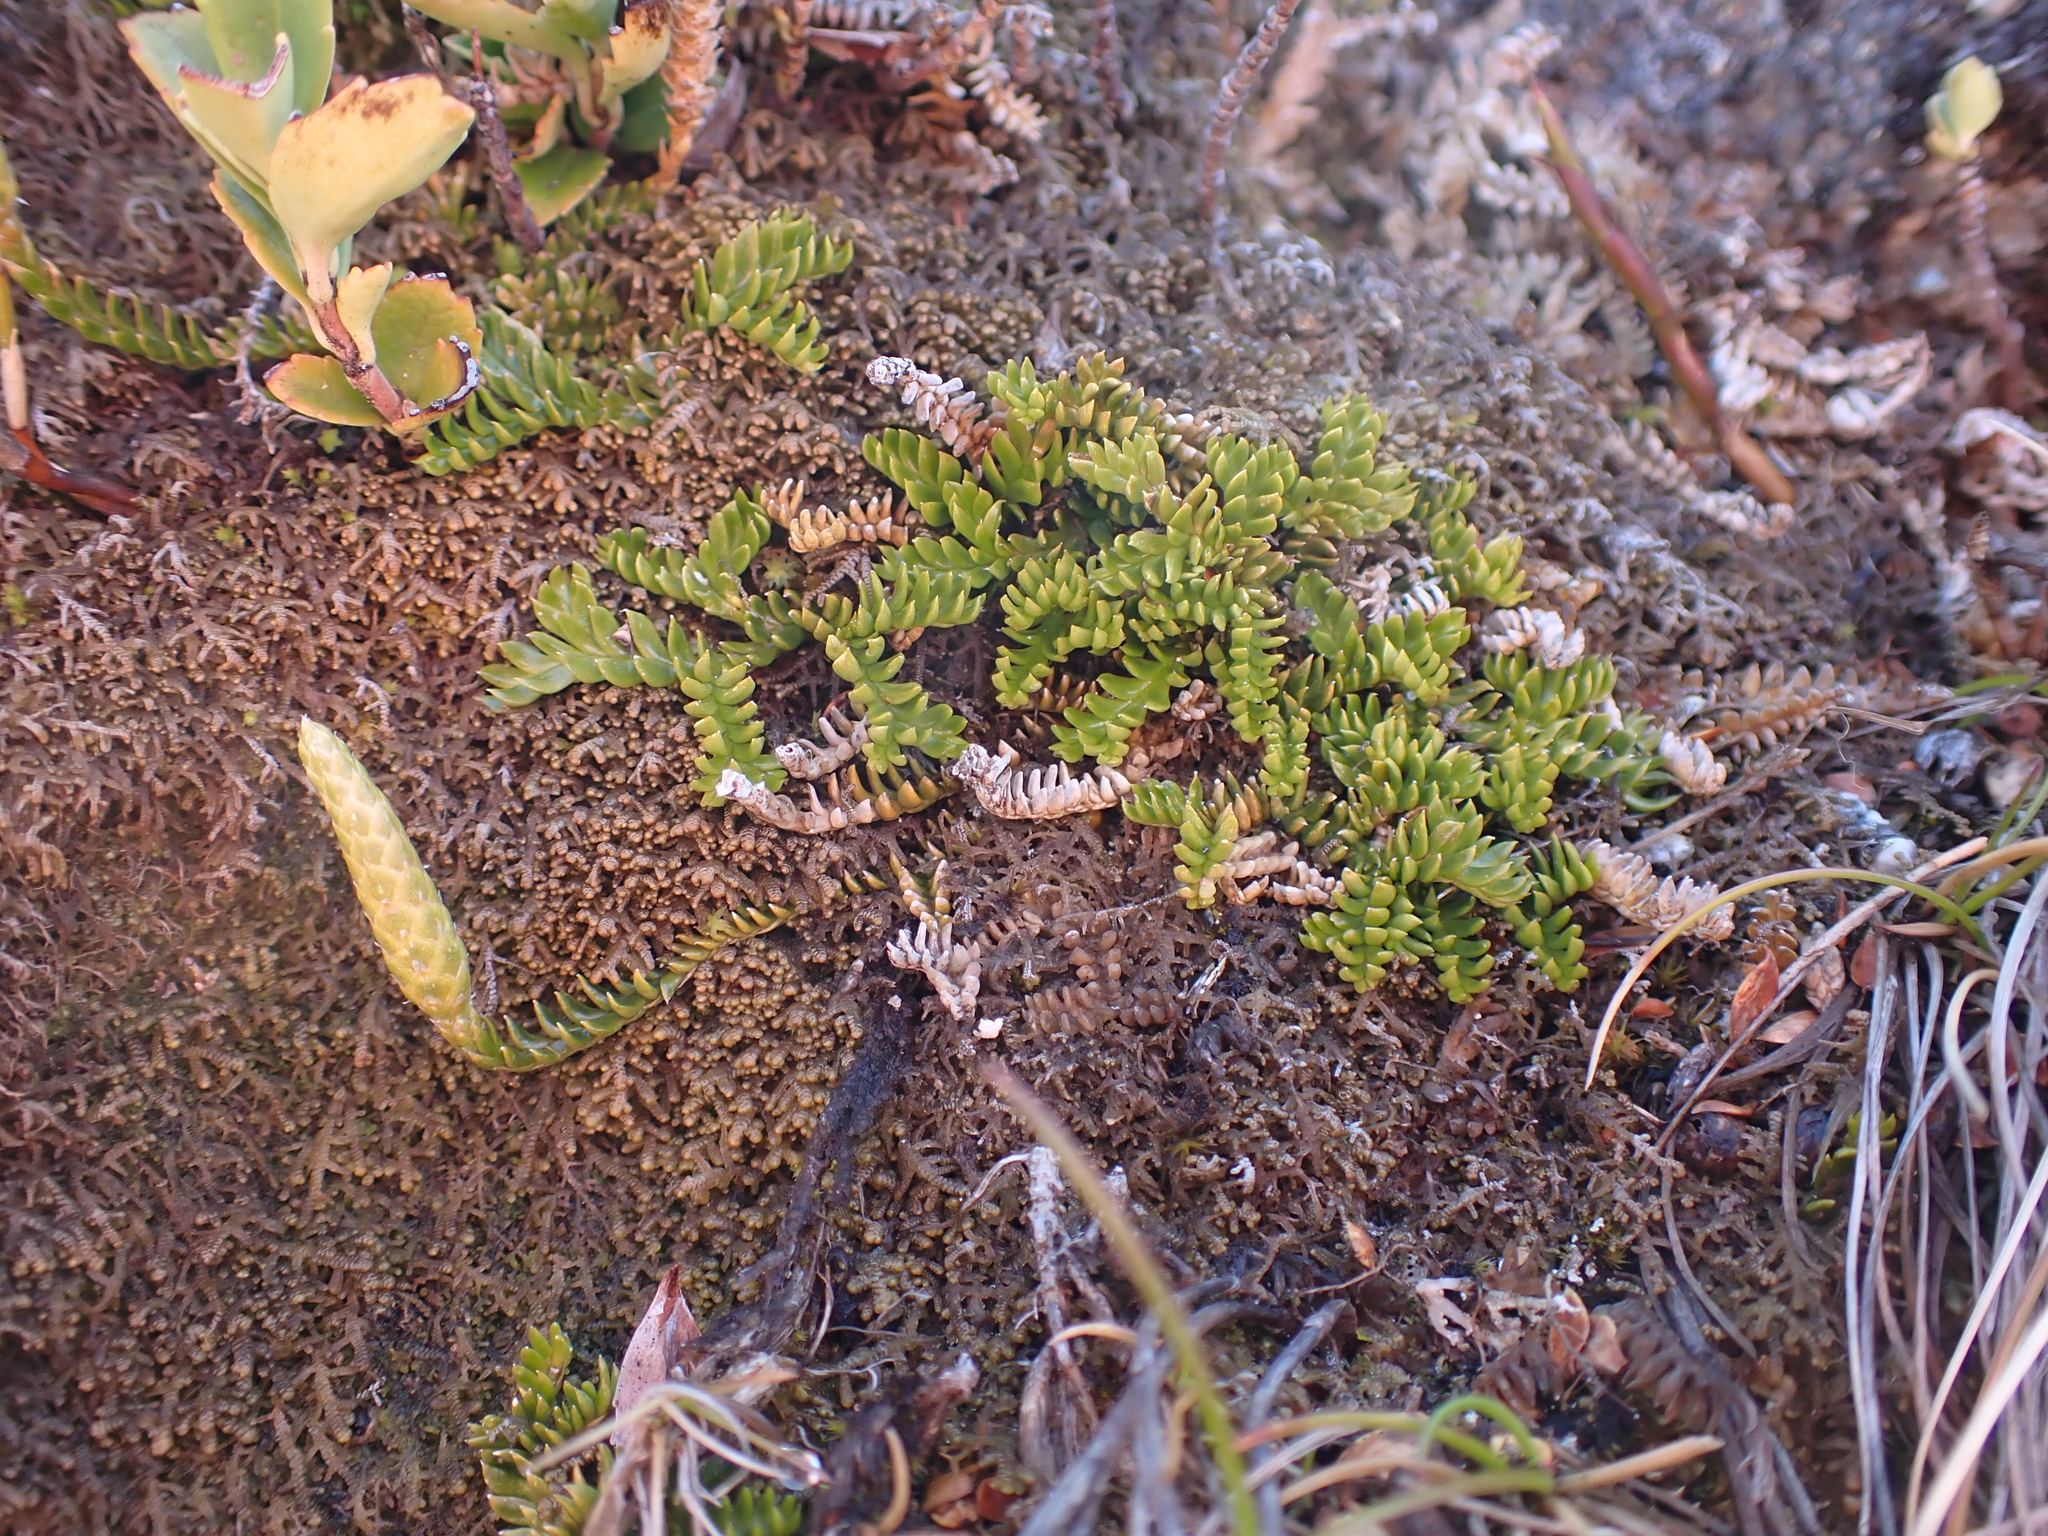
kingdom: Plantae
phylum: Tracheophyta
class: Lycopodiopsida
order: Lycopodiales
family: Lycopodiaceae
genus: Diphasium
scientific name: Diphasium scariosum
